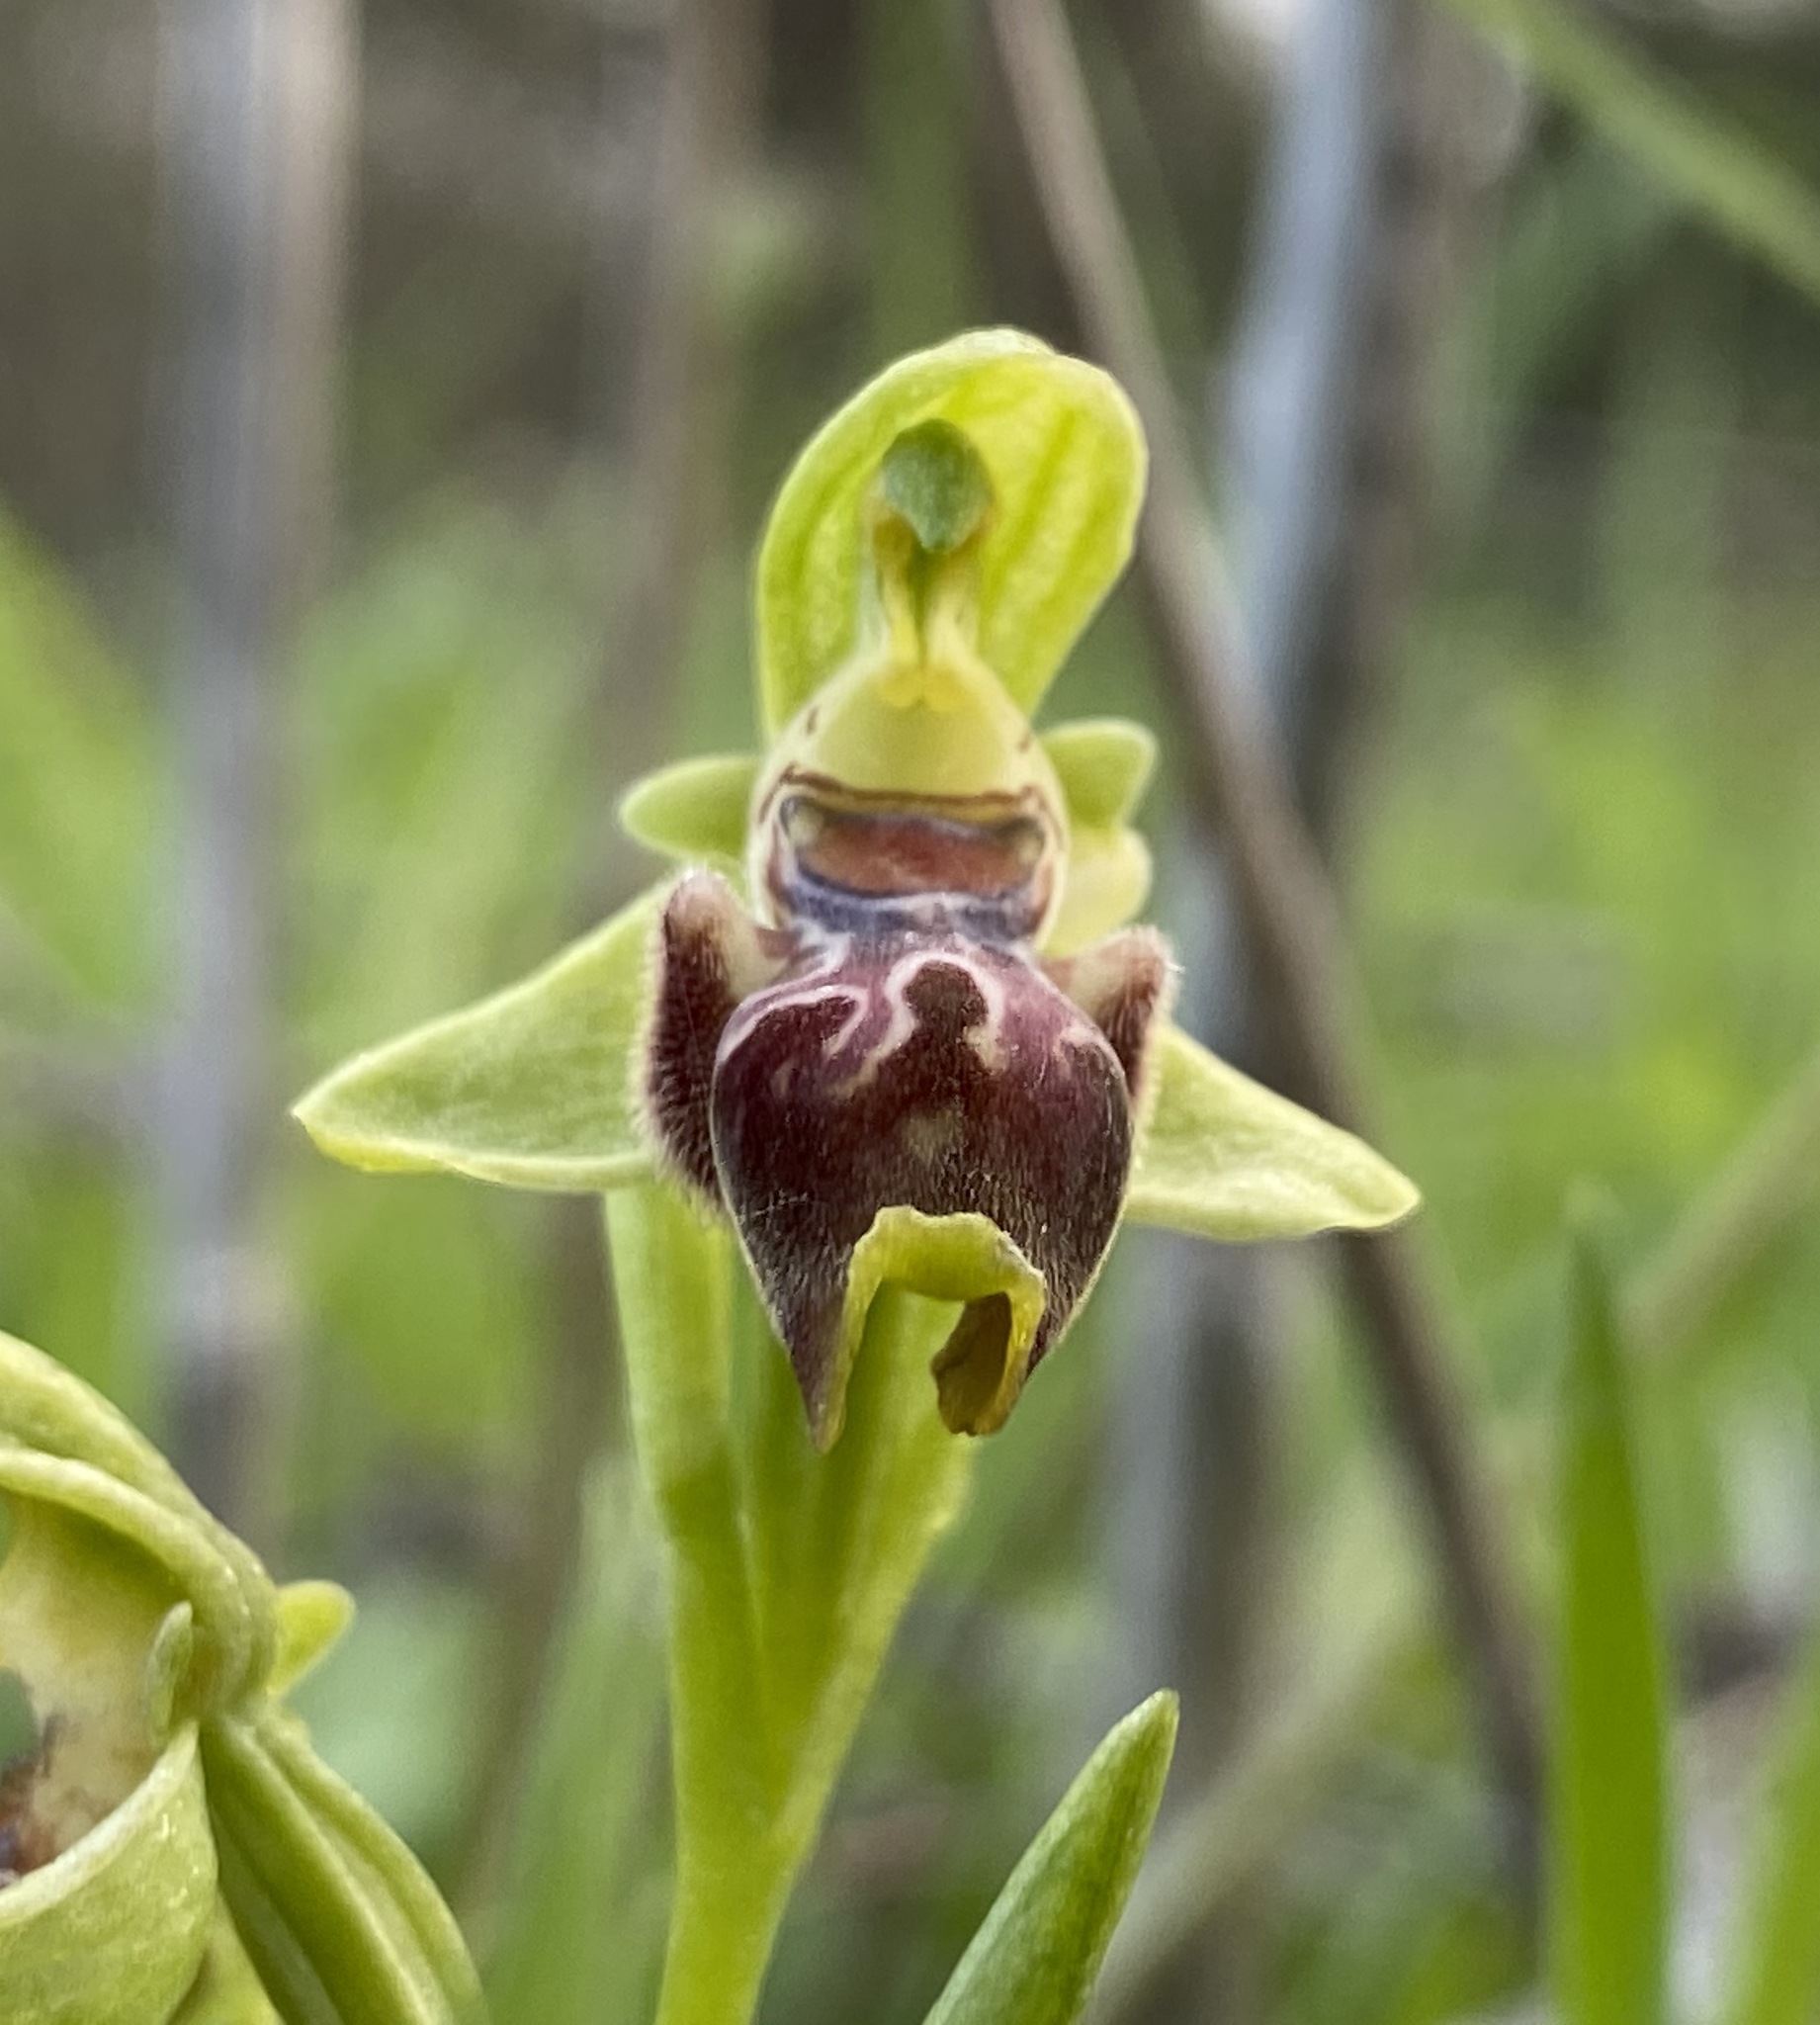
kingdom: Plantae
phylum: Tracheophyta
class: Liliopsida
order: Asparagales
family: Orchidaceae
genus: Ophrys
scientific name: Ophrys umbilicata
